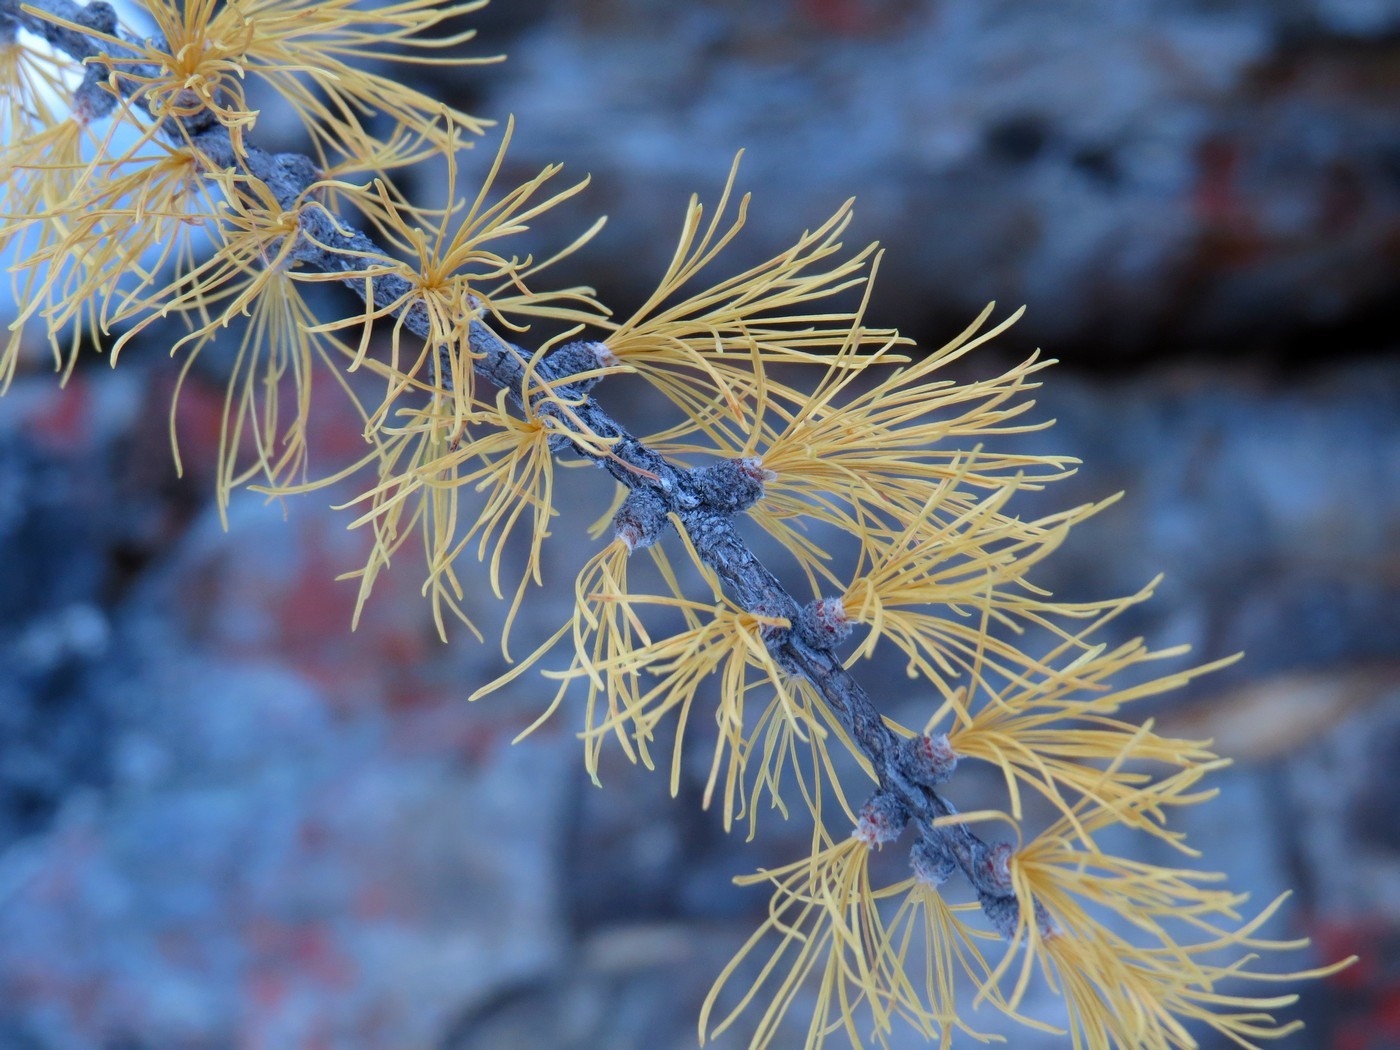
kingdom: Plantae
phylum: Tracheophyta
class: Pinopsida
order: Pinales
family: Pinaceae
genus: Larix
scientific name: Larix lyallii
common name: Alpine larch
